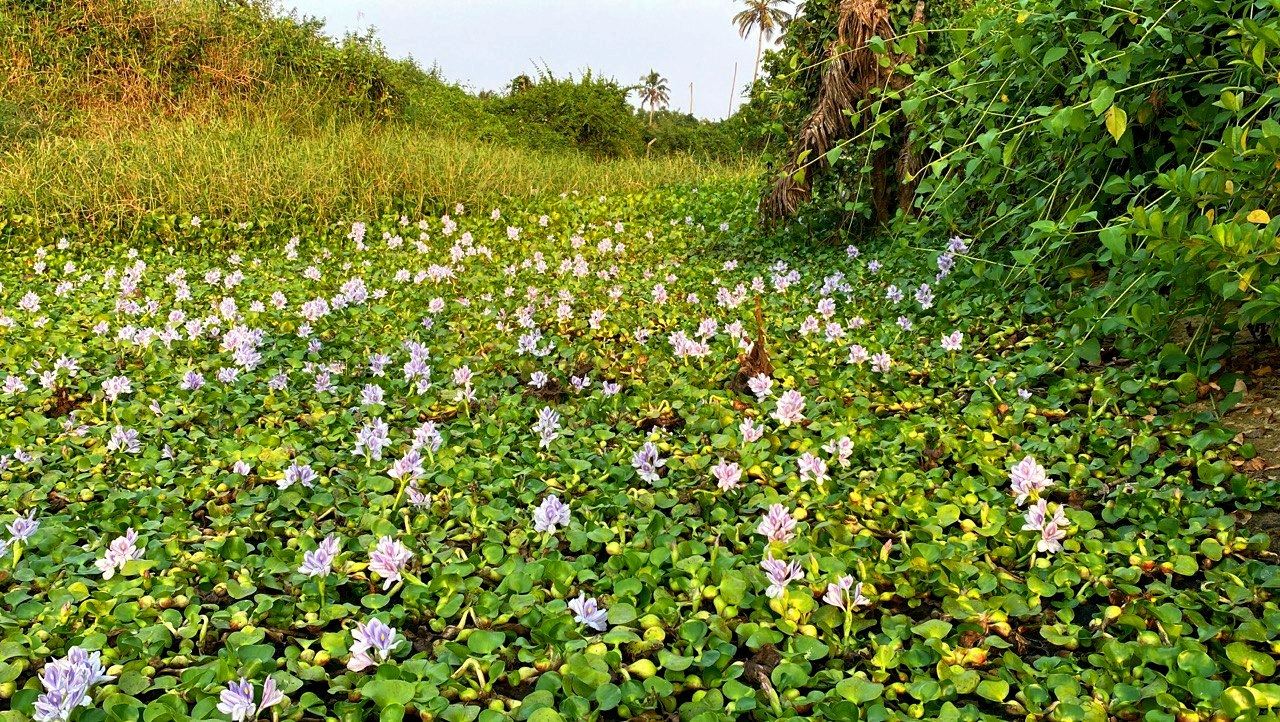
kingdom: Plantae
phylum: Tracheophyta
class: Liliopsida
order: Commelinales
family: Pontederiaceae
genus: Pontederia
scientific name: Pontederia crassipes
